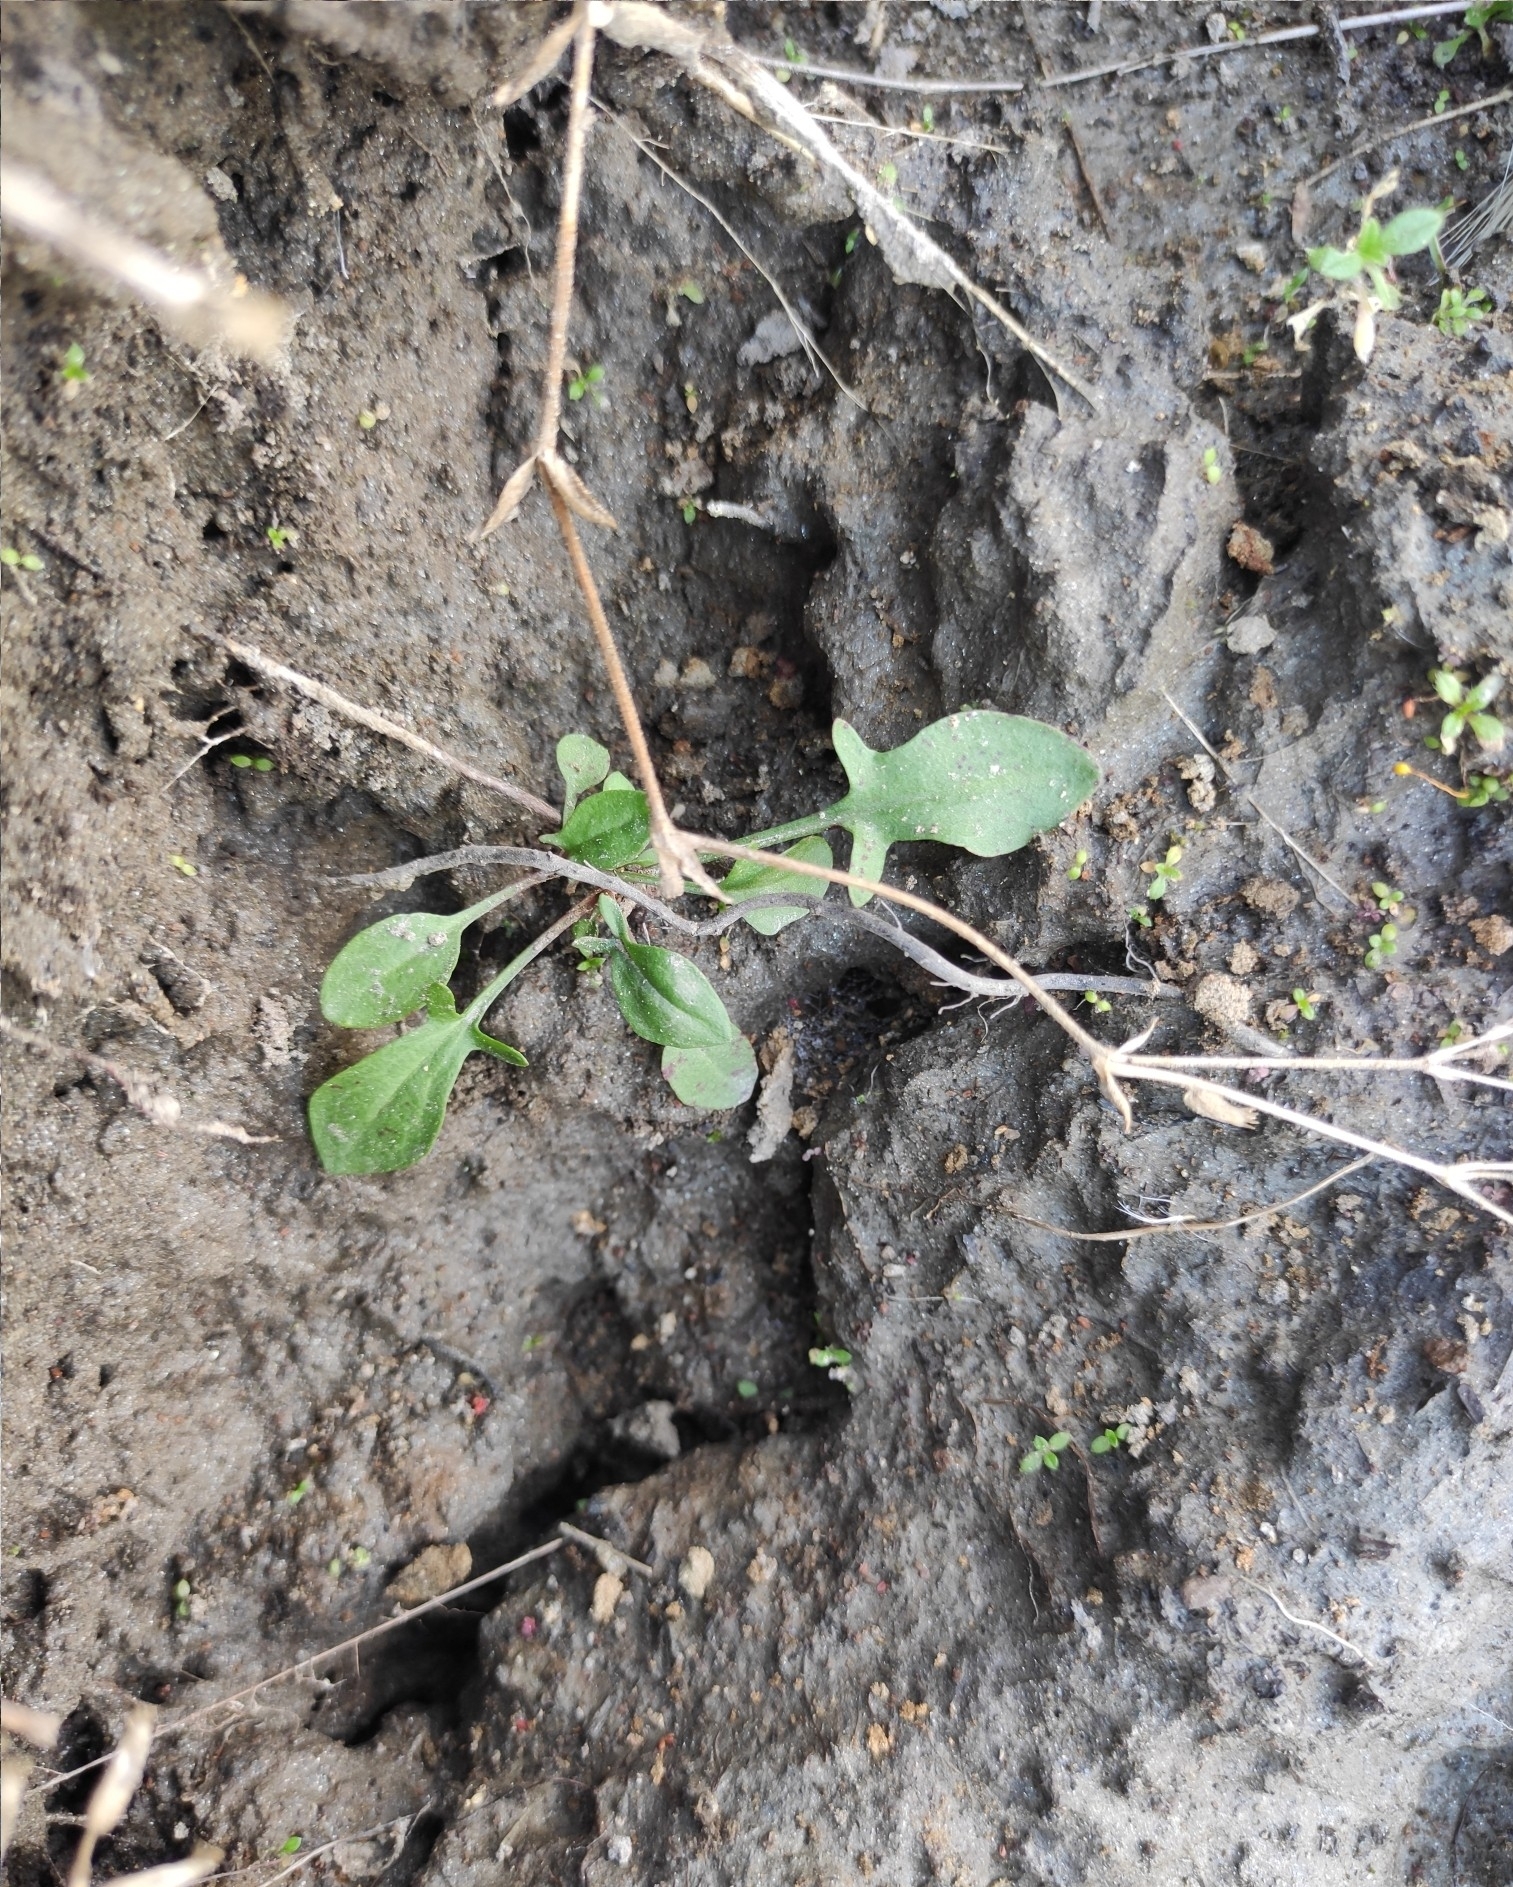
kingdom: Plantae
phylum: Tracheophyta
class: Magnoliopsida
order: Caryophyllales
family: Polygonaceae
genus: Rumex
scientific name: Rumex acetosella
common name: Common sheep sorrel
